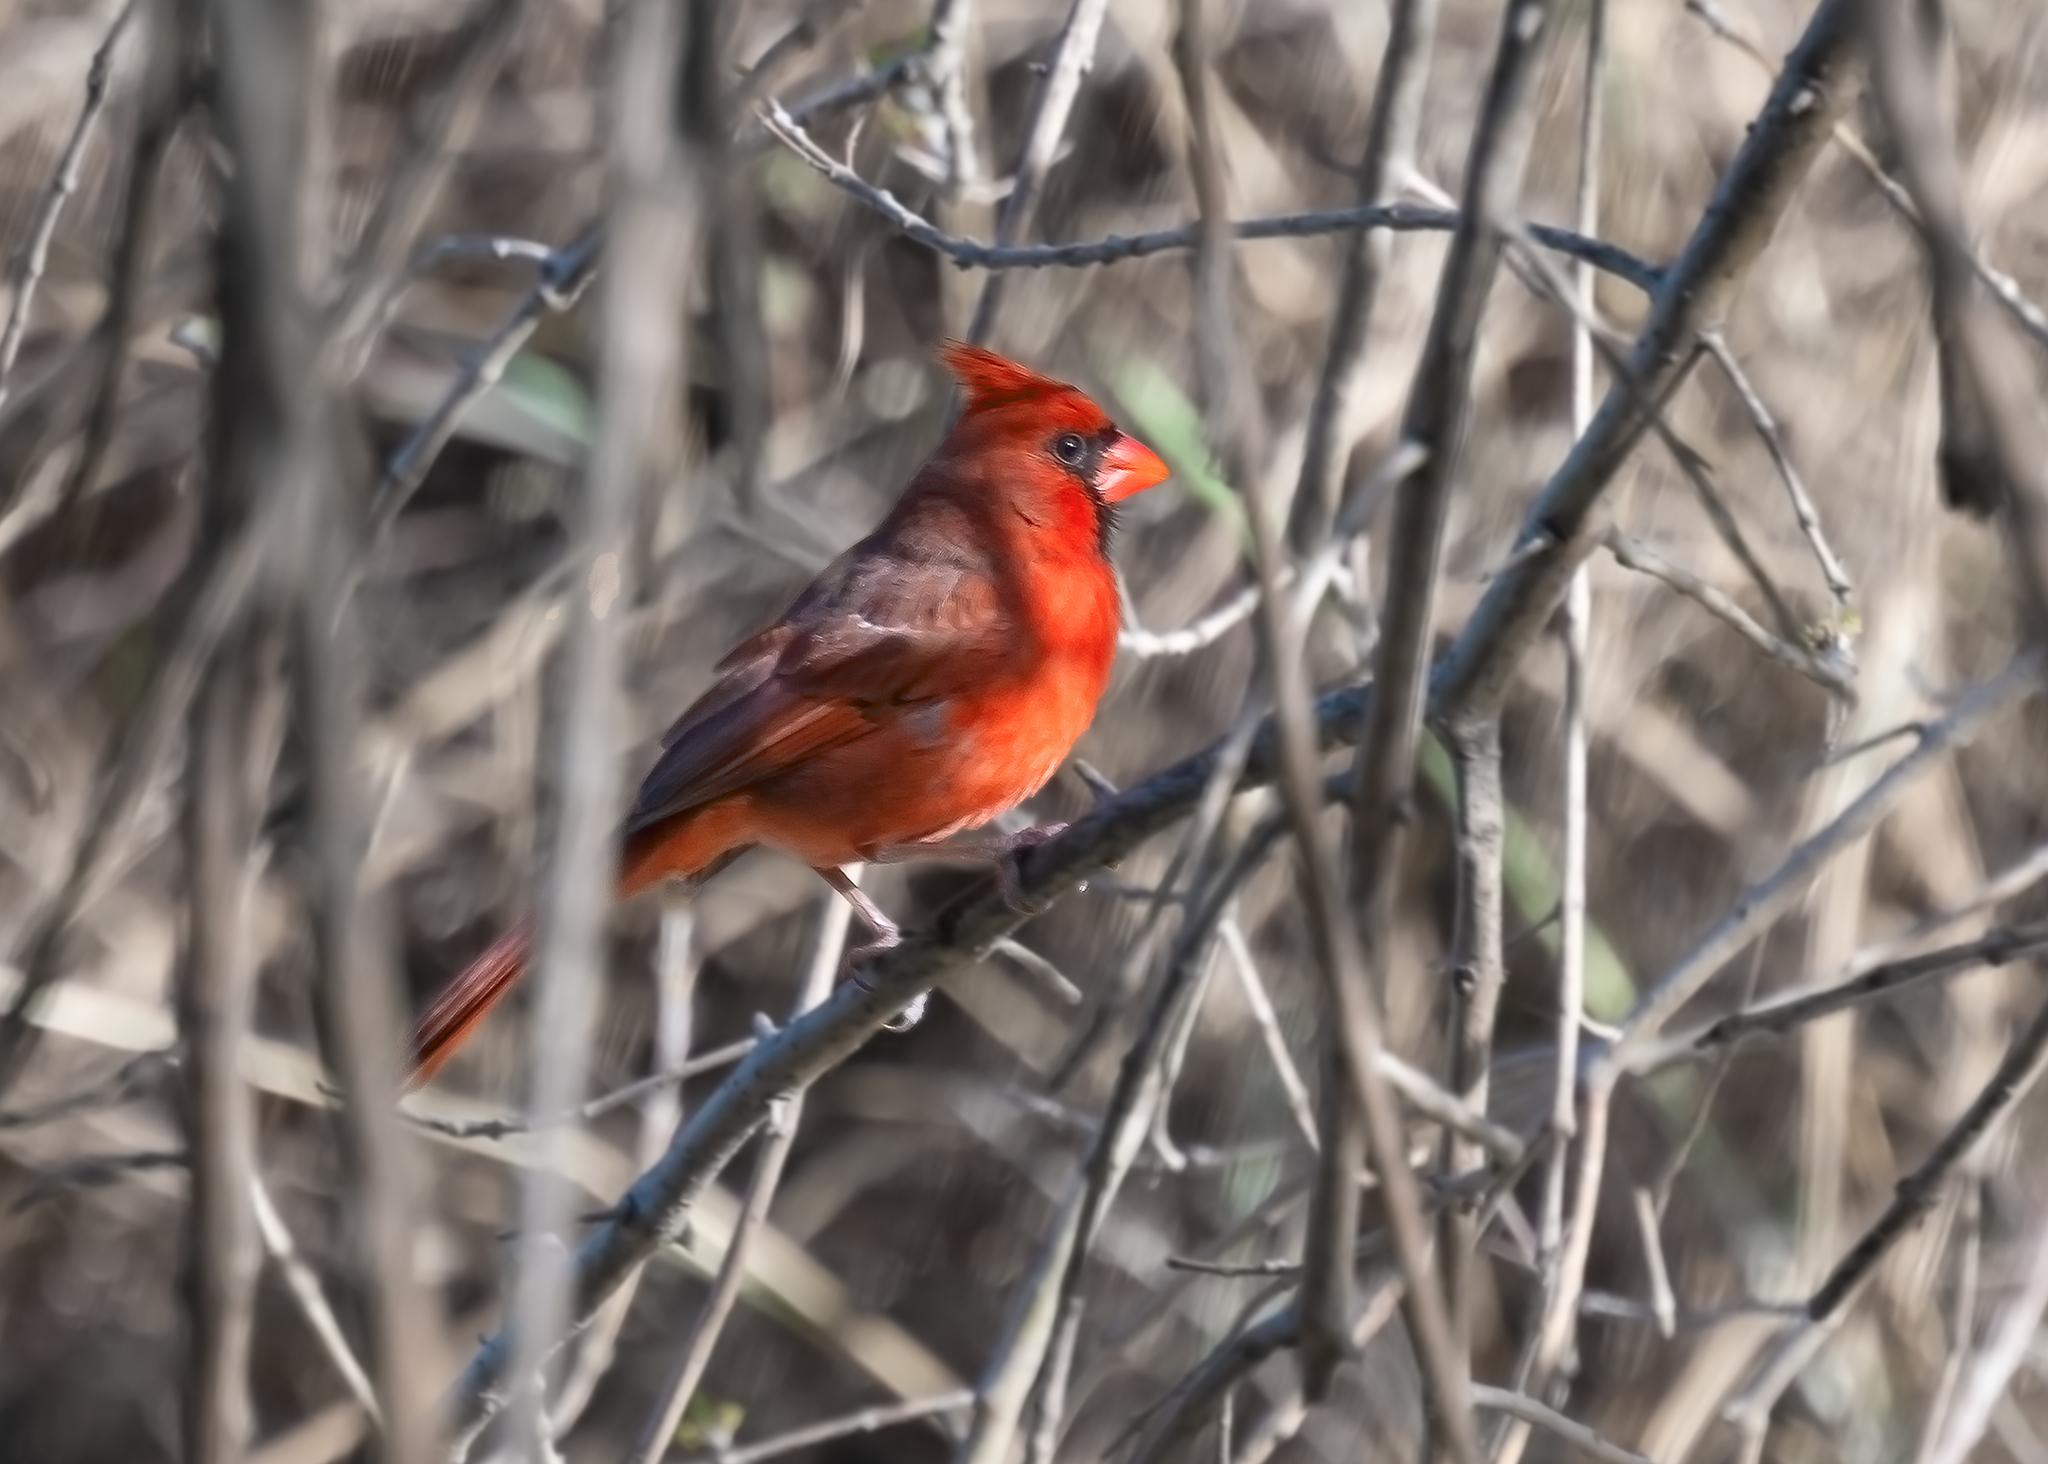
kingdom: Animalia
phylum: Chordata
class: Aves
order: Passeriformes
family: Cardinalidae
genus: Cardinalis
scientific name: Cardinalis cardinalis
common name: Northern cardinal
